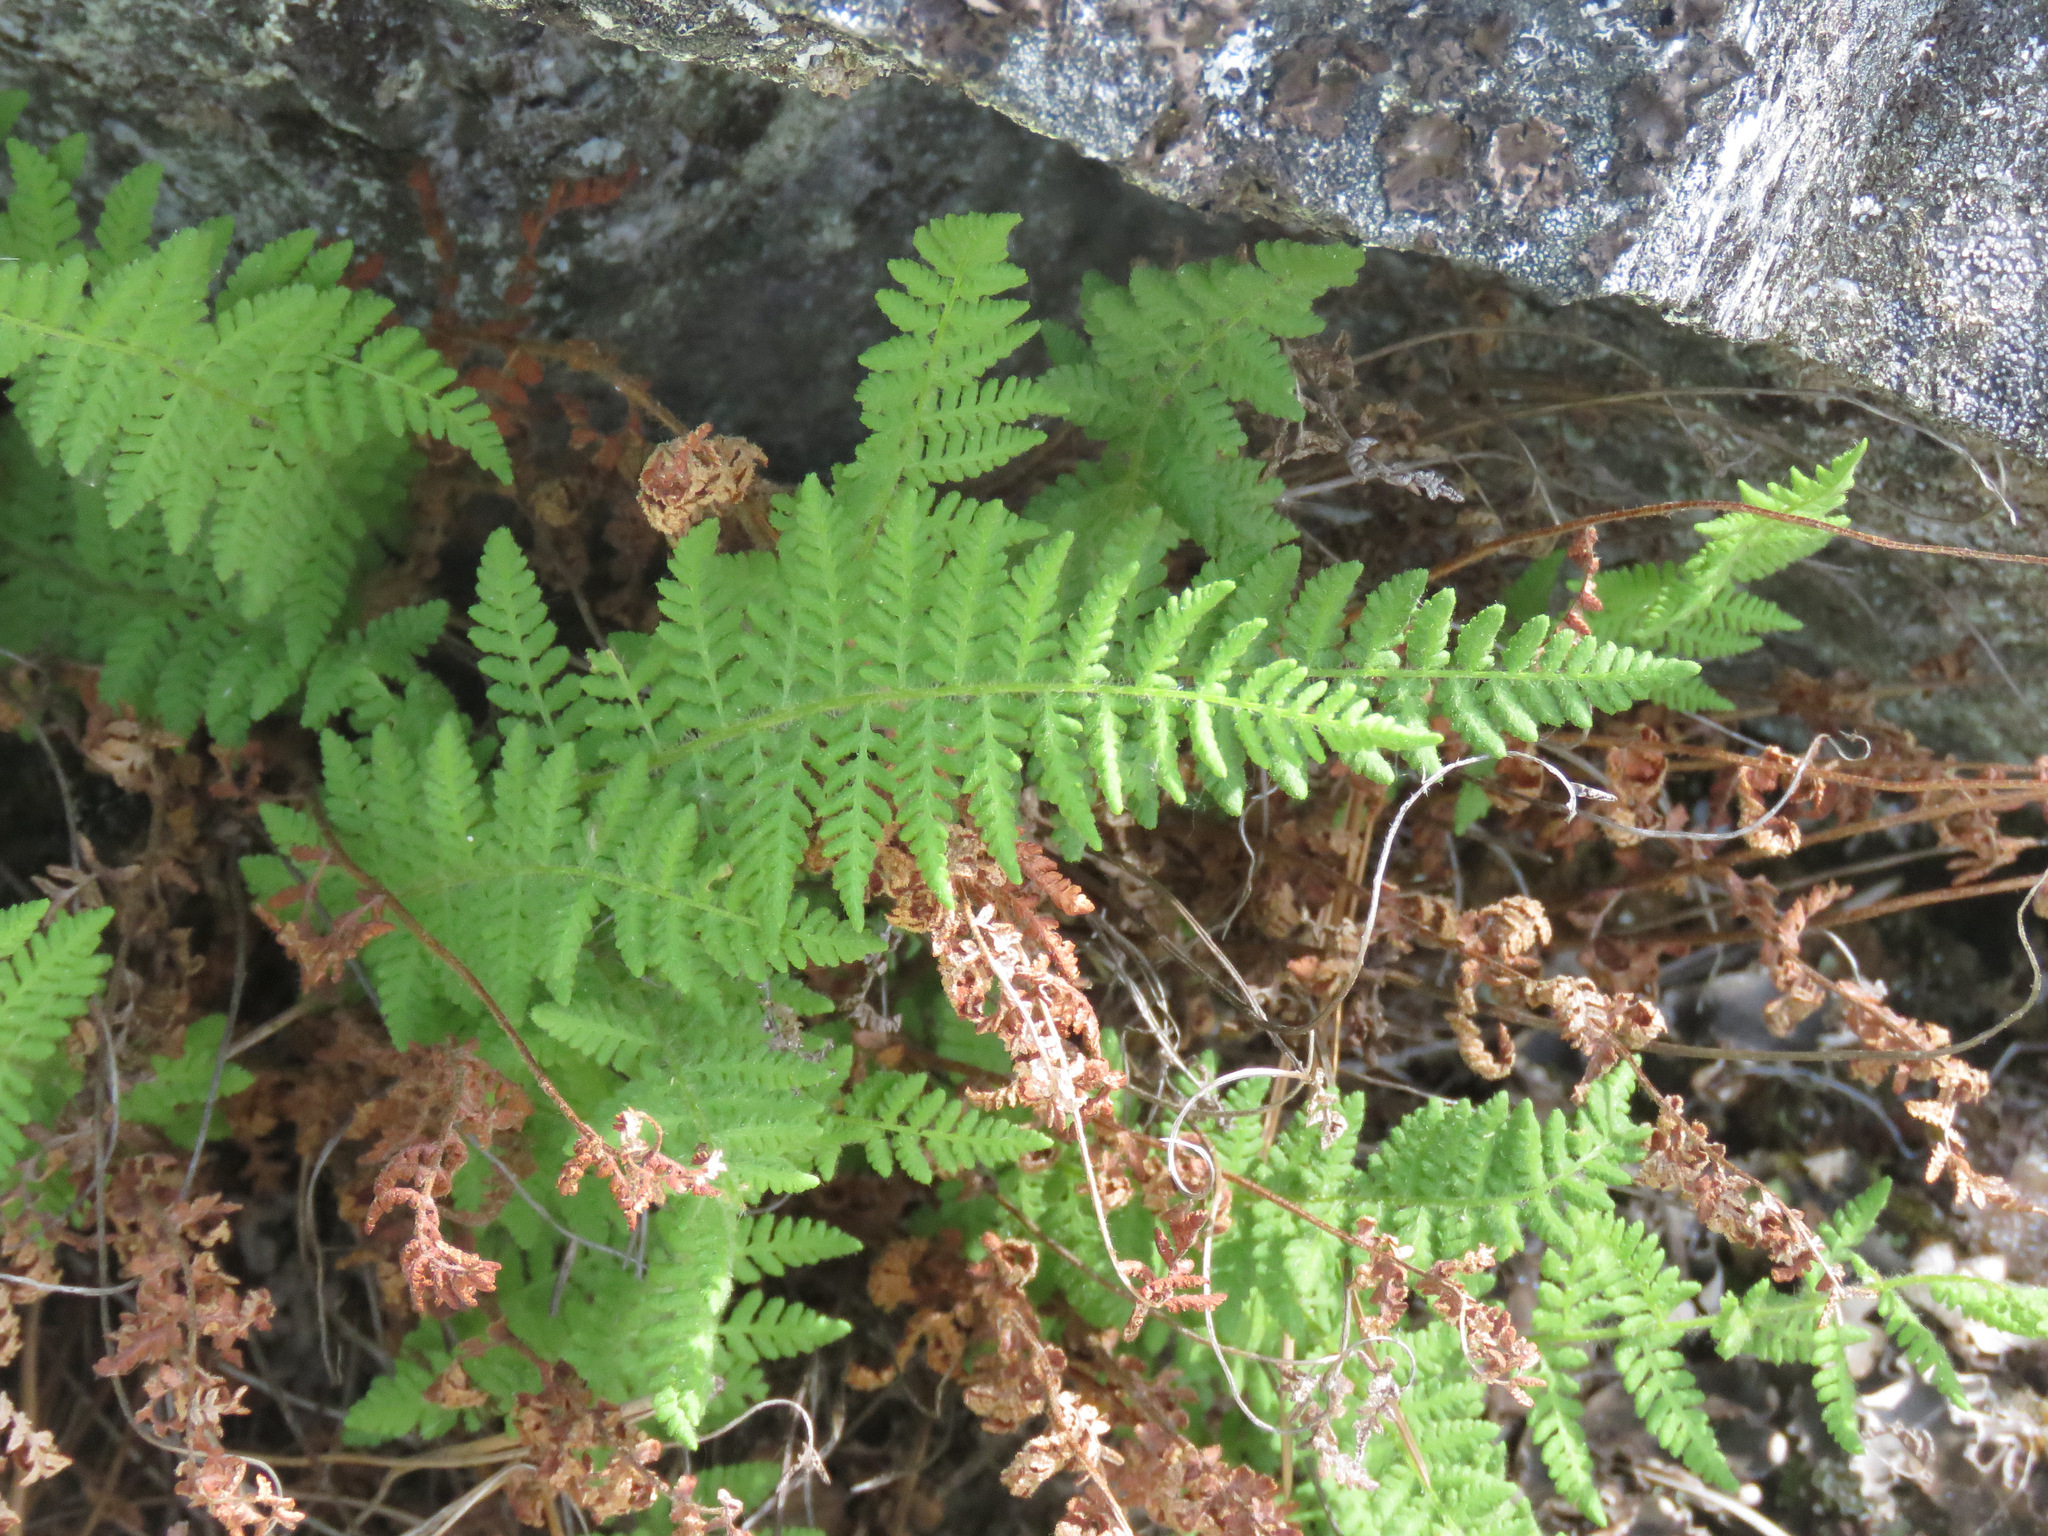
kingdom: Plantae
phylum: Tracheophyta
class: Polypodiopsida
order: Polypodiales
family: Woodsiaceae
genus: Physematium
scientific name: Physematium scopulinum
